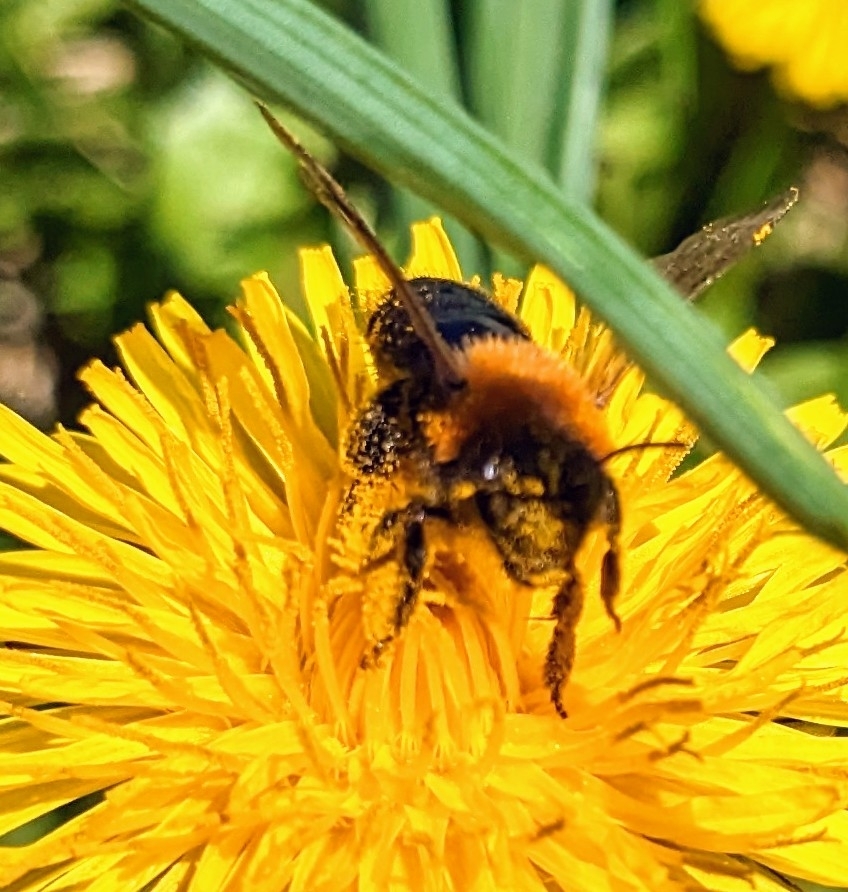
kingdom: Animalia
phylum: Arthropoda
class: Insecta
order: Hymenoptera
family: Andrenidae
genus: Andrena
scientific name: Andrena thoracica
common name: Cliff mining bee
